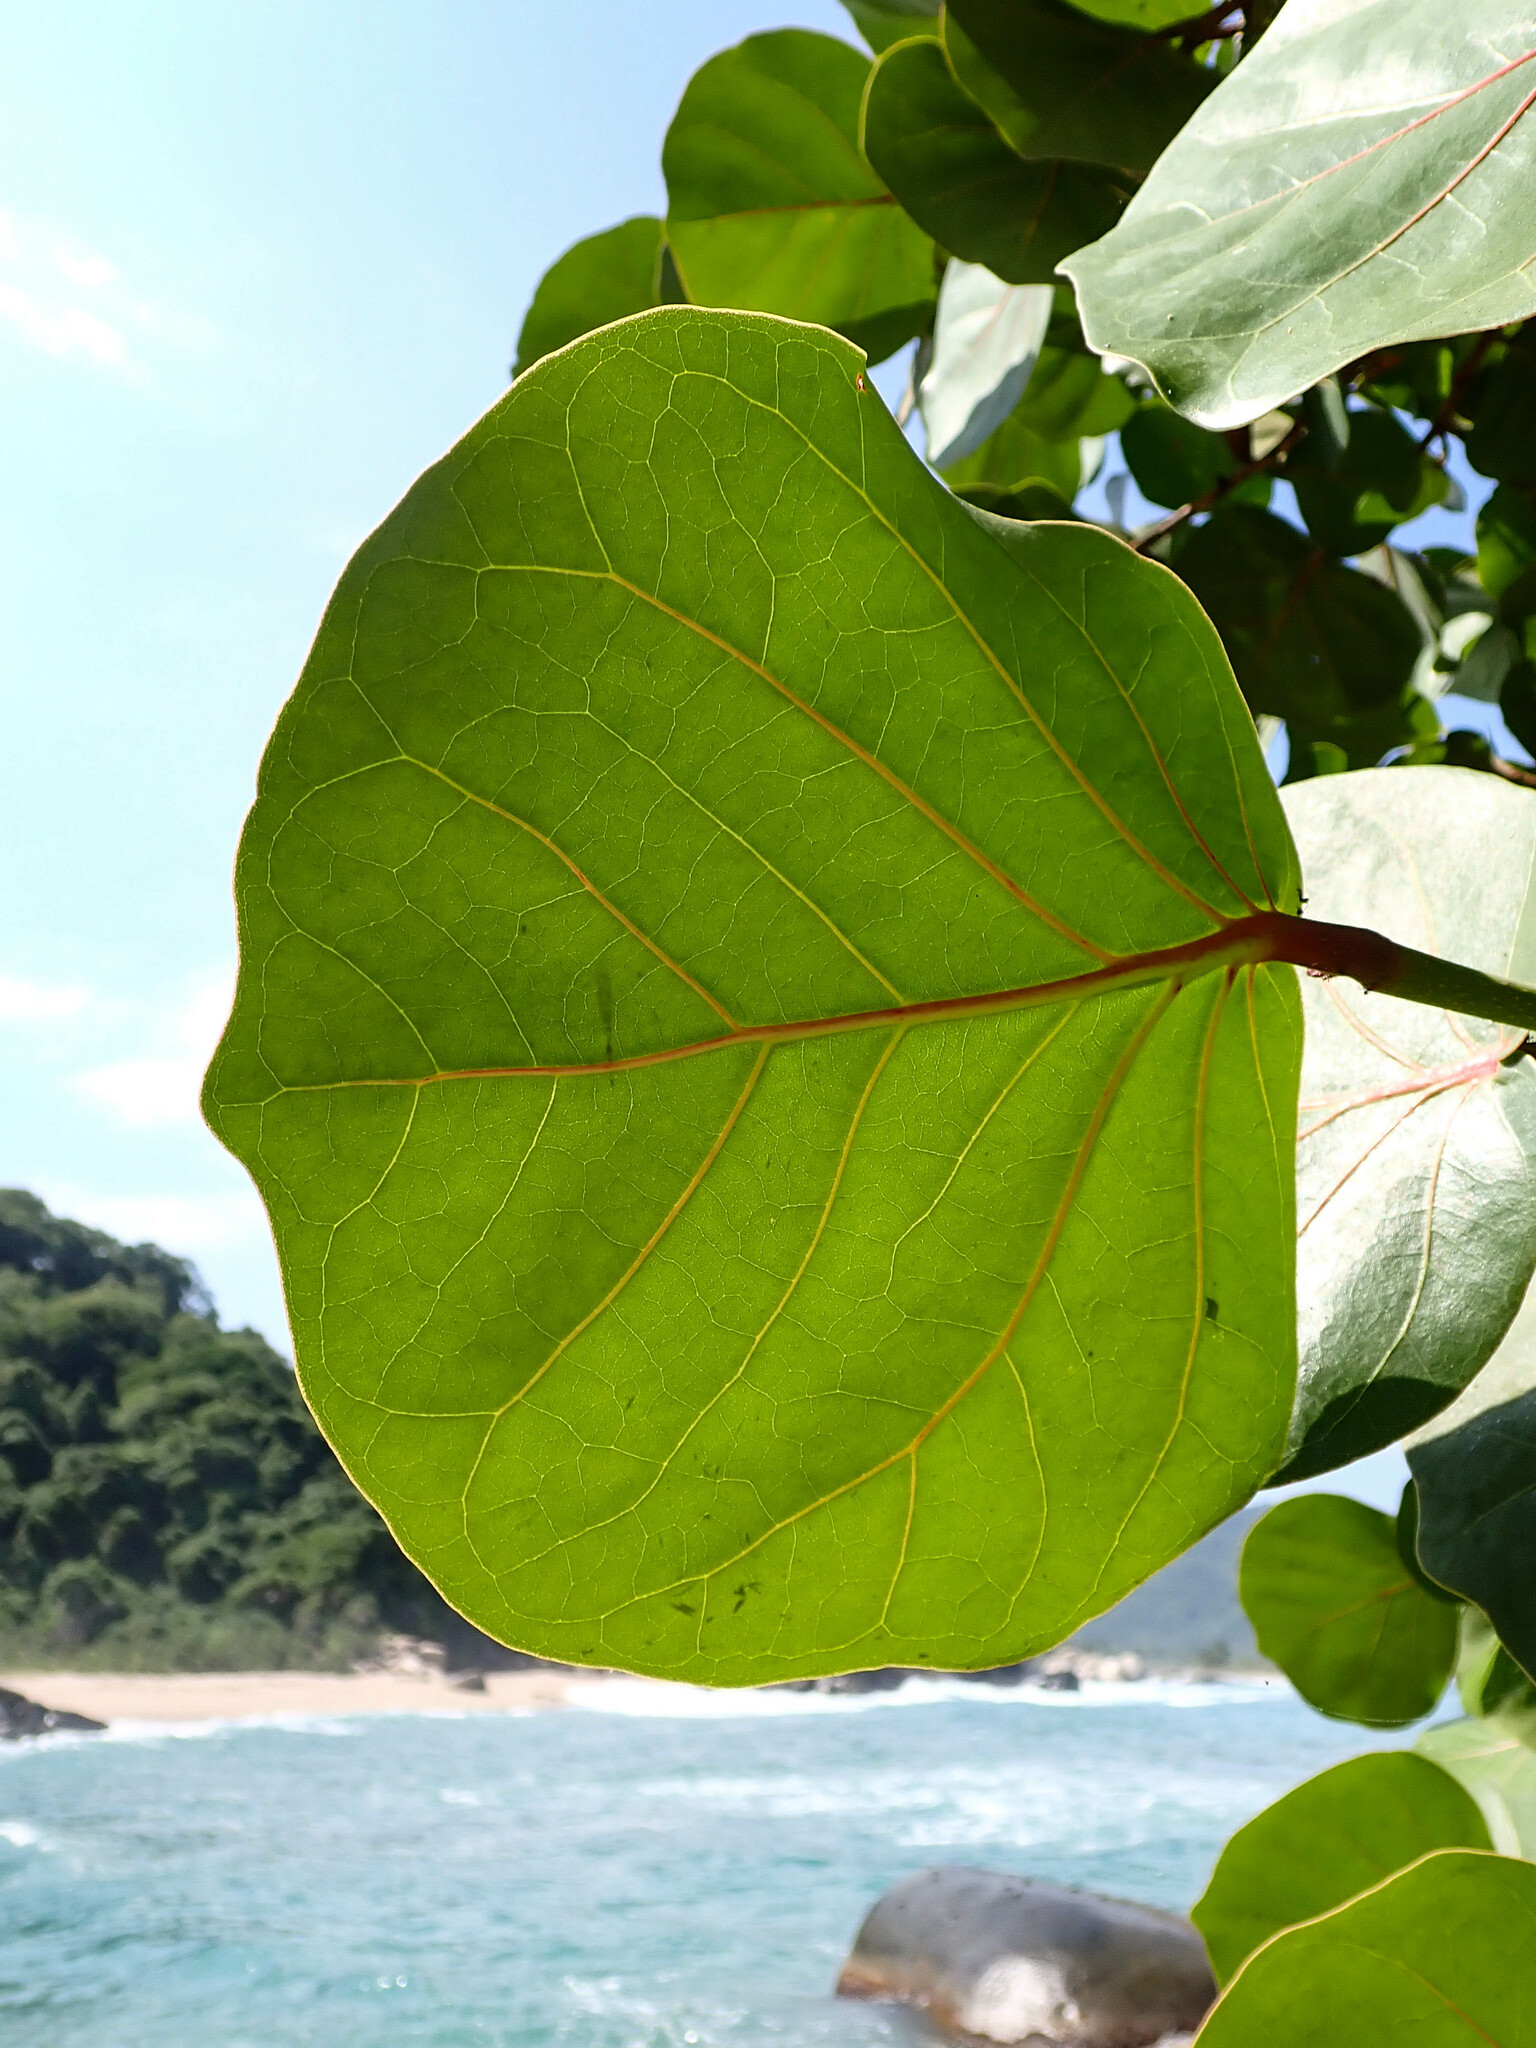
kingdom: Plantae
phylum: Tracheophyta
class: Magnoliopsida
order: Caryophyllales
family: Polygonaceae
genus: Coccoloba
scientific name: Coccoloba uvifera
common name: Seagrape
